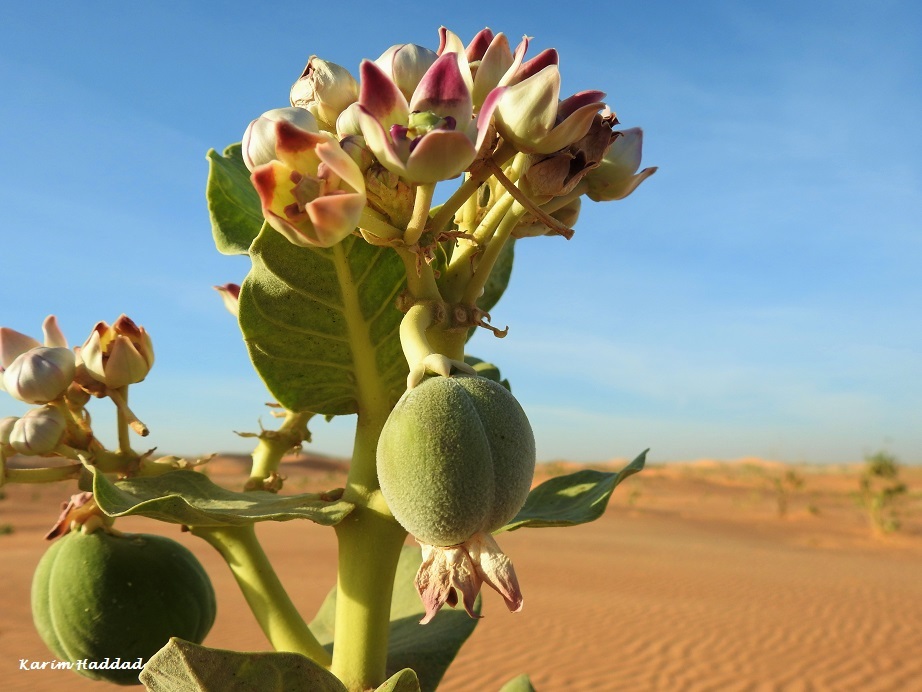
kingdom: Plantae
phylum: Tracheophyta
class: Magnoliopsida
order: Gentianales
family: Apocynaceae
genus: Calotropis
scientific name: Calotropis procera
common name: Roostertree
